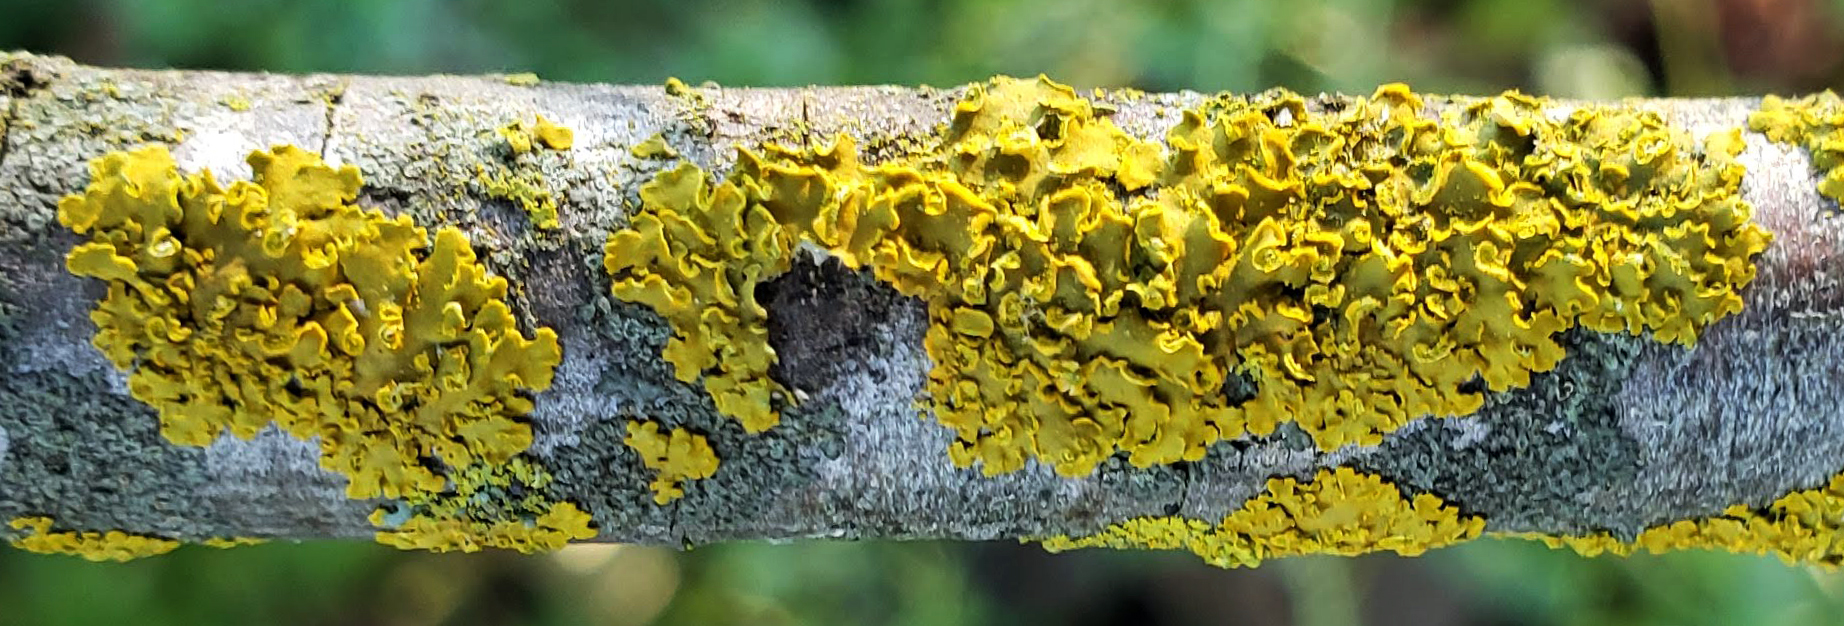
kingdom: Fungi
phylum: Ascomycota
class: Lecanoromycetes
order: Teloschistales
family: Teloschistaceae
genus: Oxneria
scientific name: Oxneria fallax
